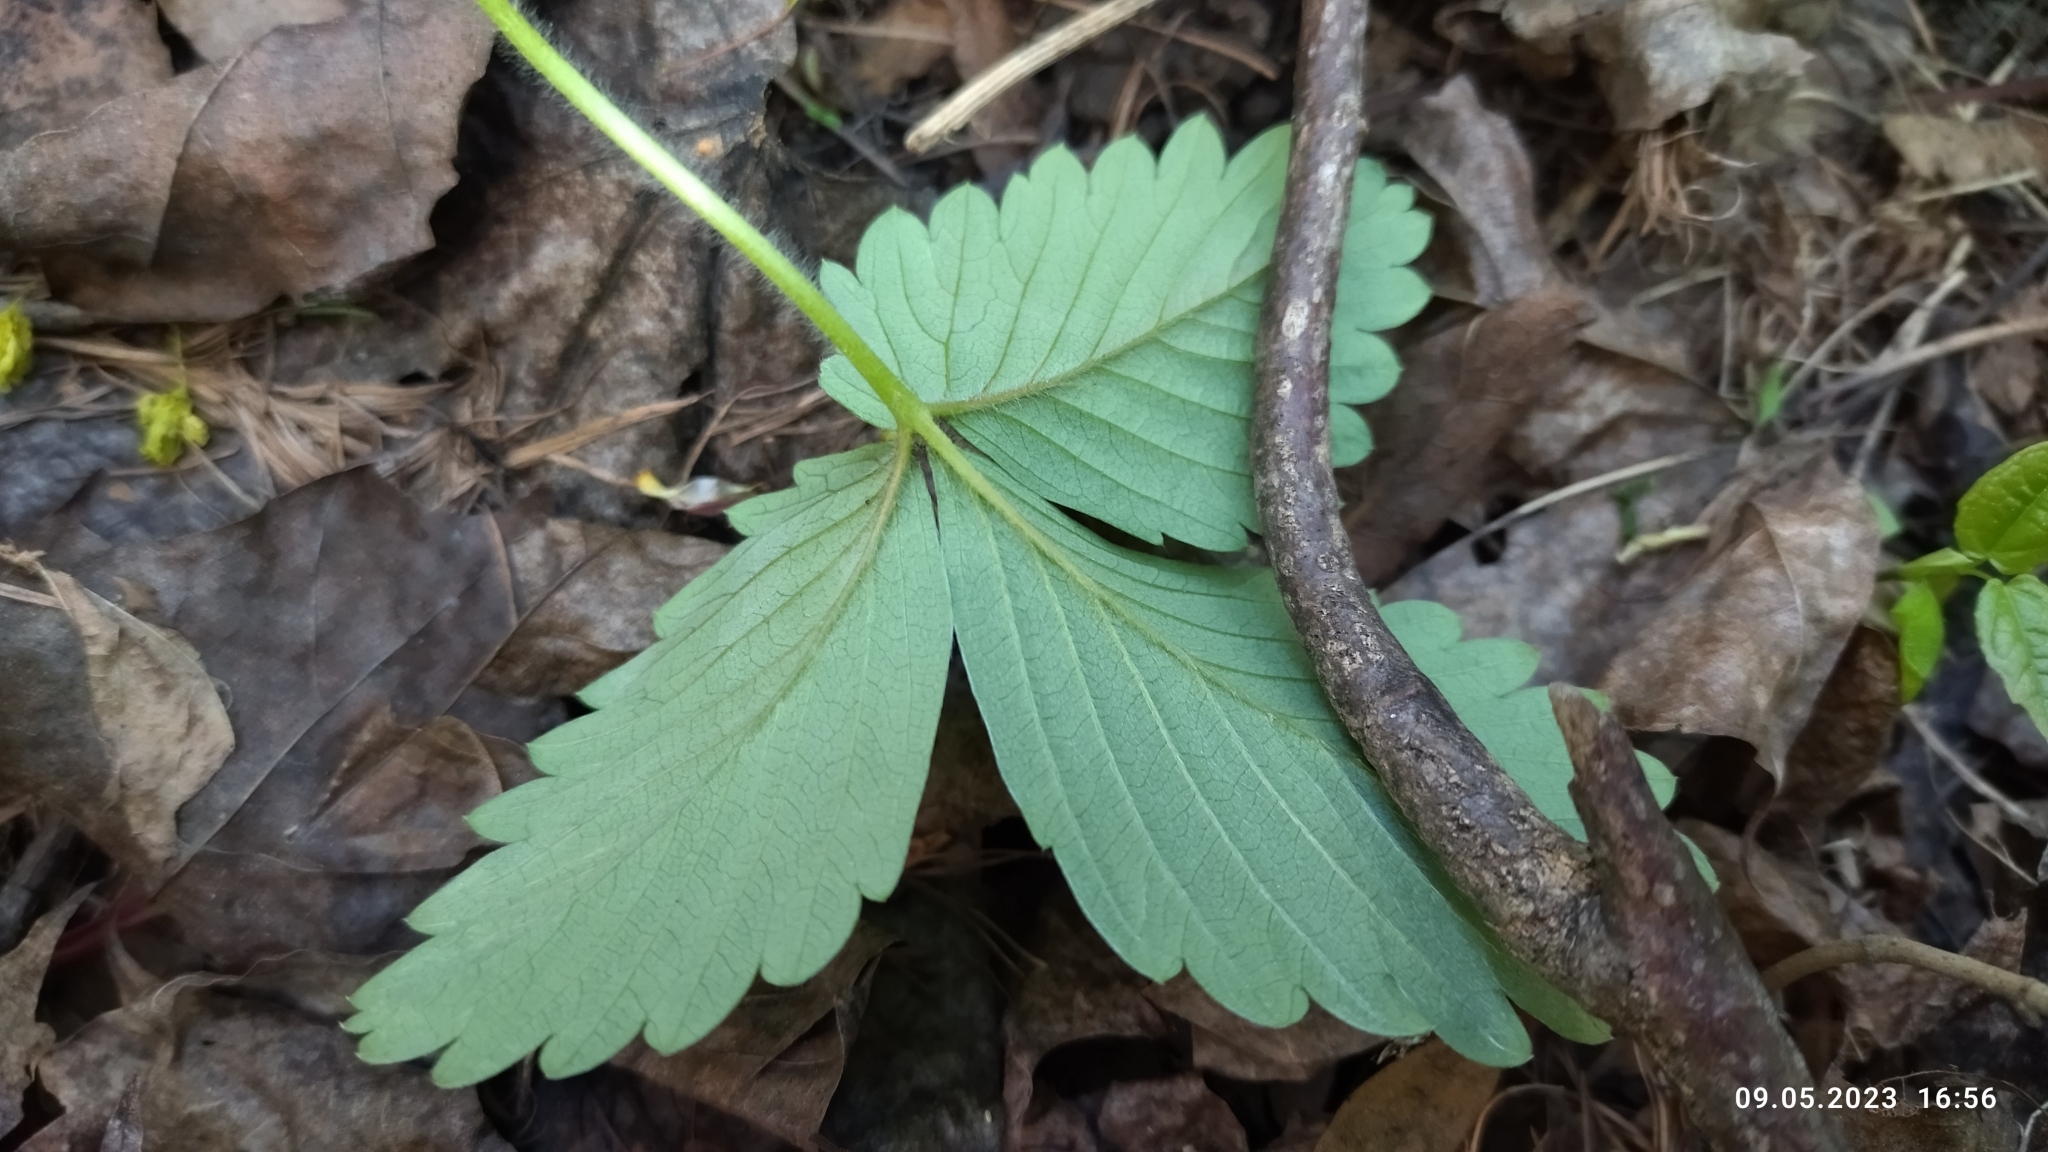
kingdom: Plantae
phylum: Tracheophyta
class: Magnoliopsida
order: Rosales
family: Rosaceae
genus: Fragaria
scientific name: Fragaria vesca
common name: Wild strawberry
